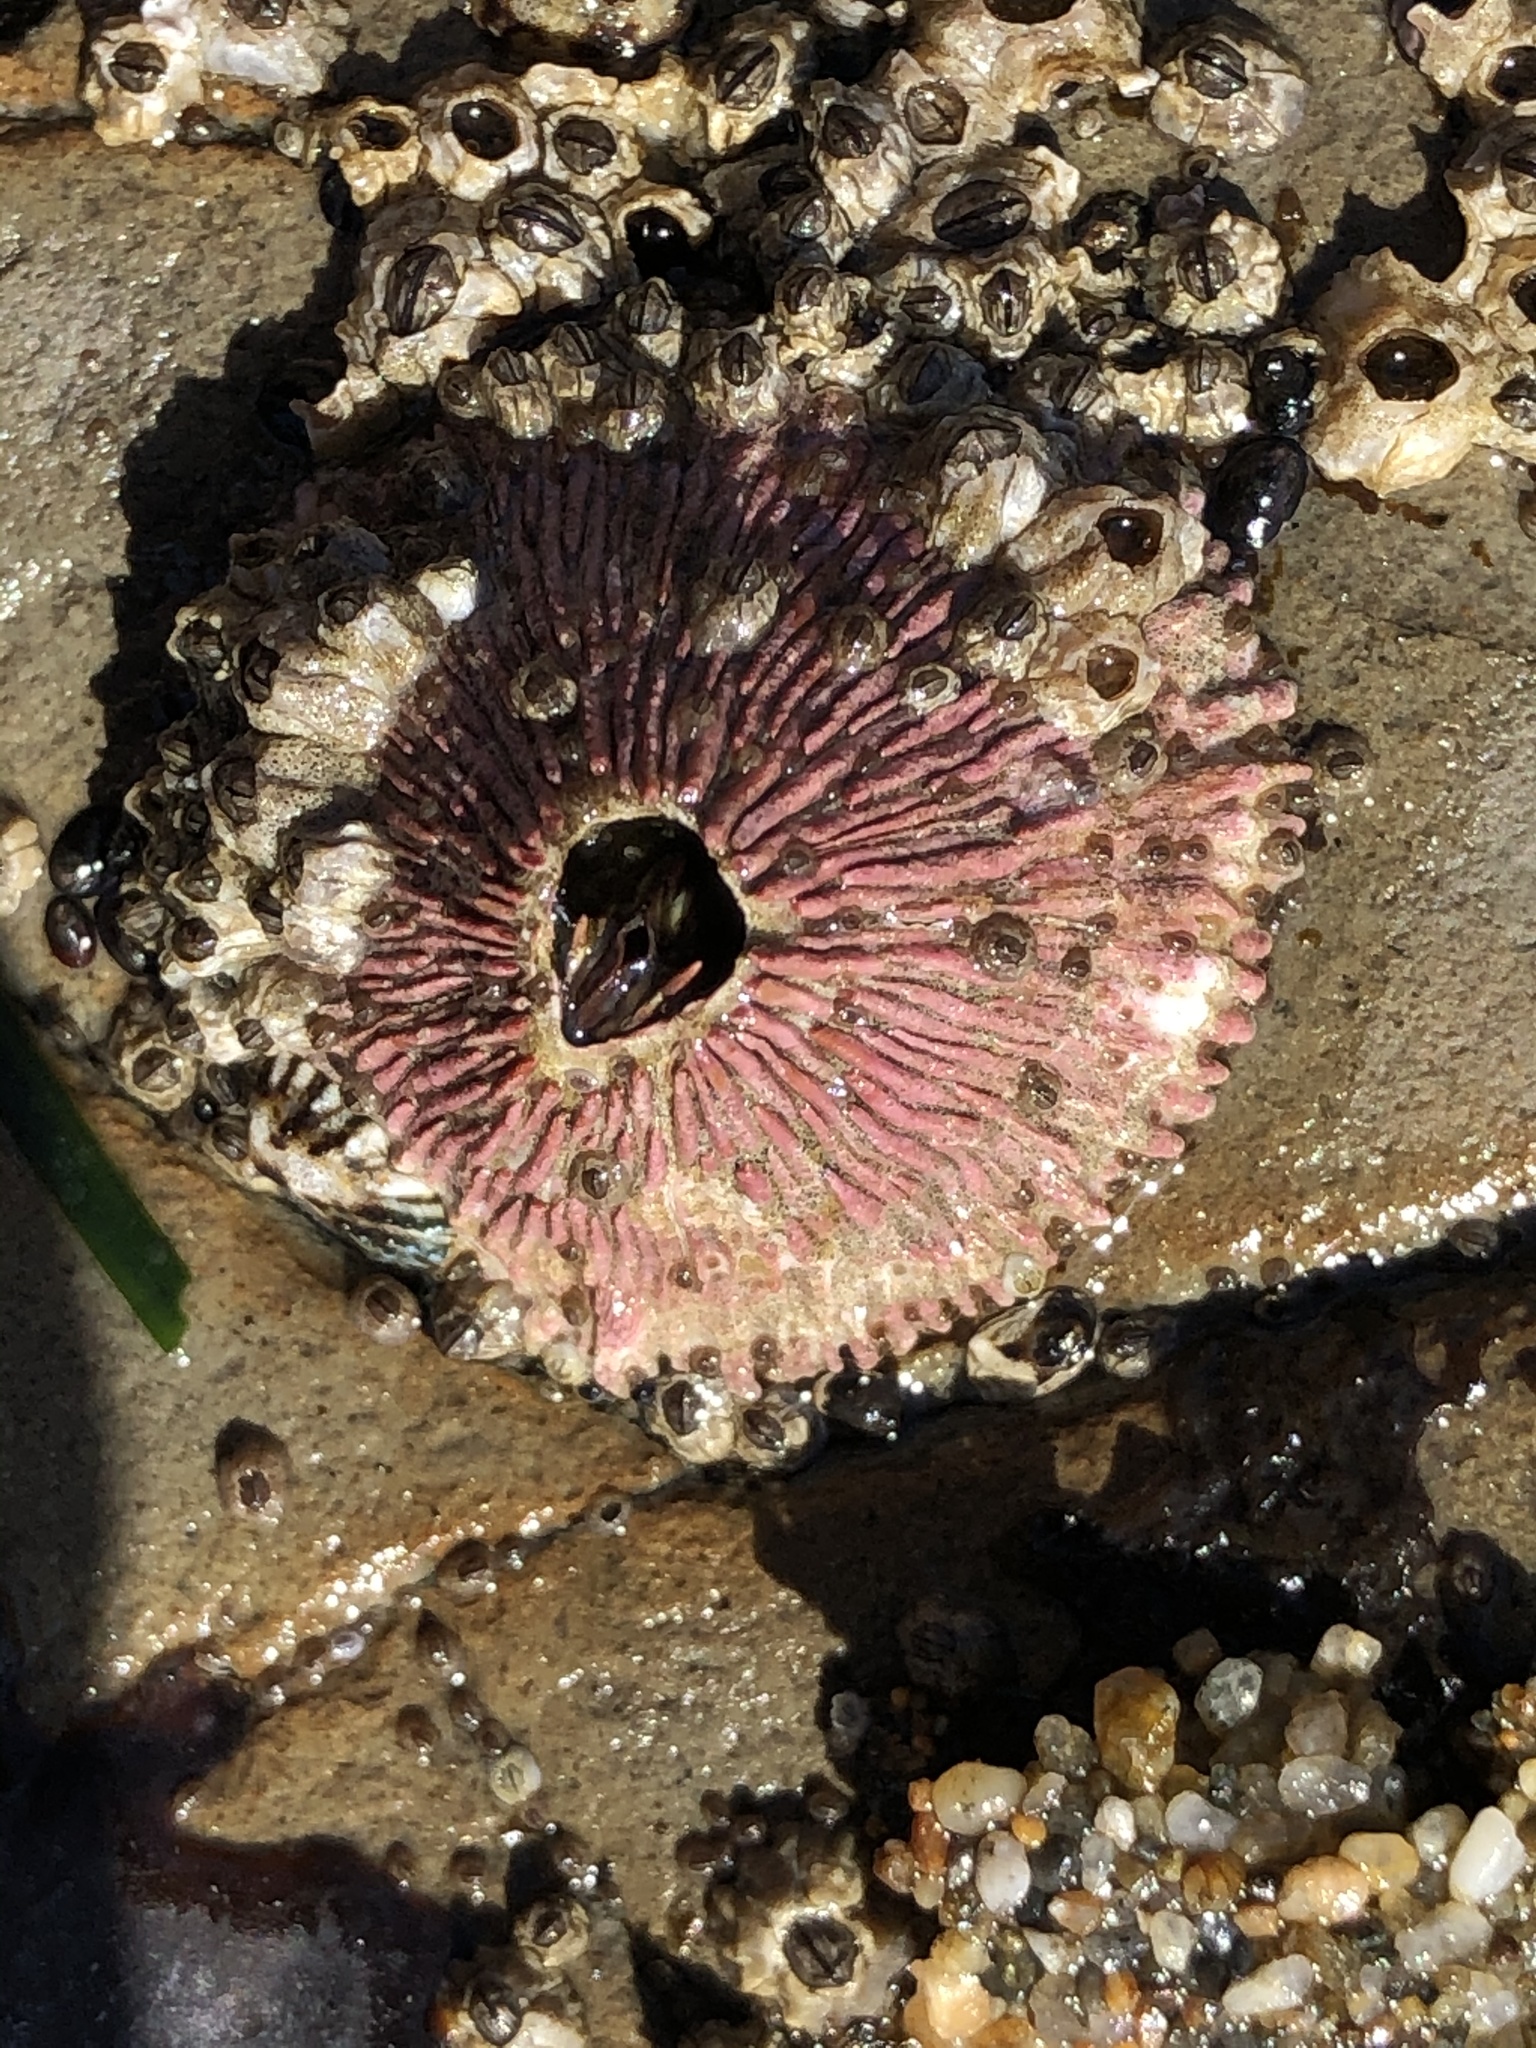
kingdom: Animalia
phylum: Arthropoda
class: Maxillopoda
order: Sessilia
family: Tetraclitidae
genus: Tetraclita
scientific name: Tetraclita rubescens
